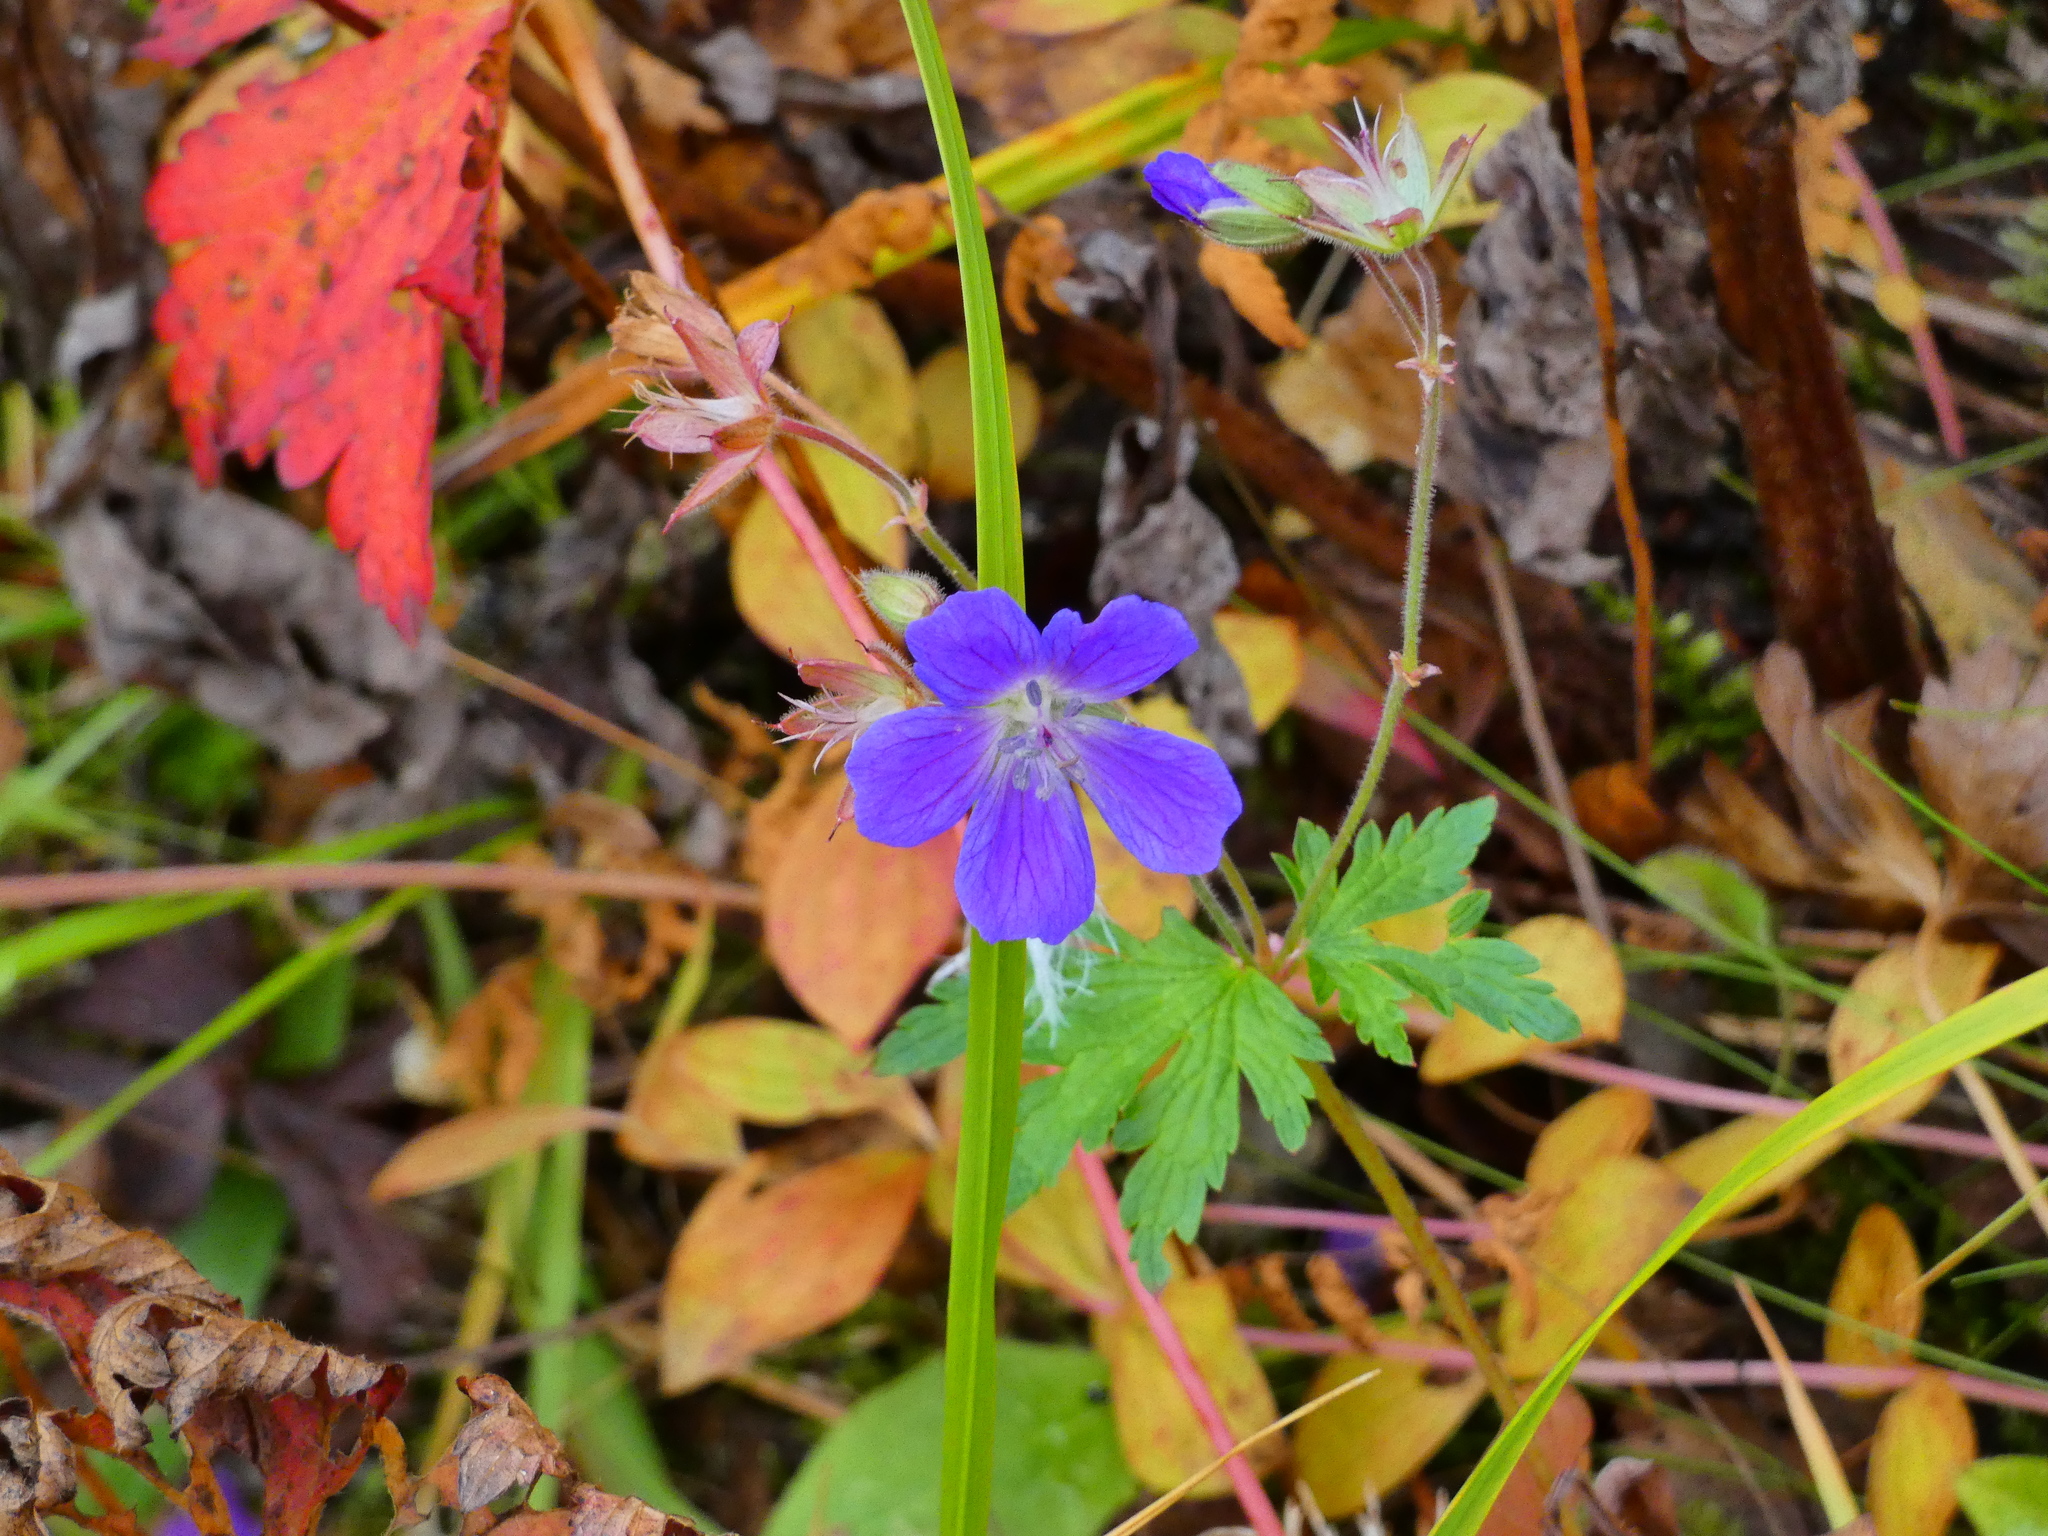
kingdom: Plantae
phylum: Tracheophyta
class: Magnoliopsida
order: Geraniales
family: Geraniaceae
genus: Geranium
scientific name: Geranium sylvaticum
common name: Wood crane's-bill
